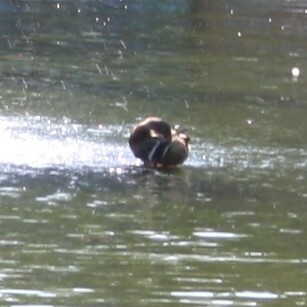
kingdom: Animalia
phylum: Chordata
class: Aves
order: Anseriformes
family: Anatidae
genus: Anas
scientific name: Anas platyrhynchos
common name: Mallard
